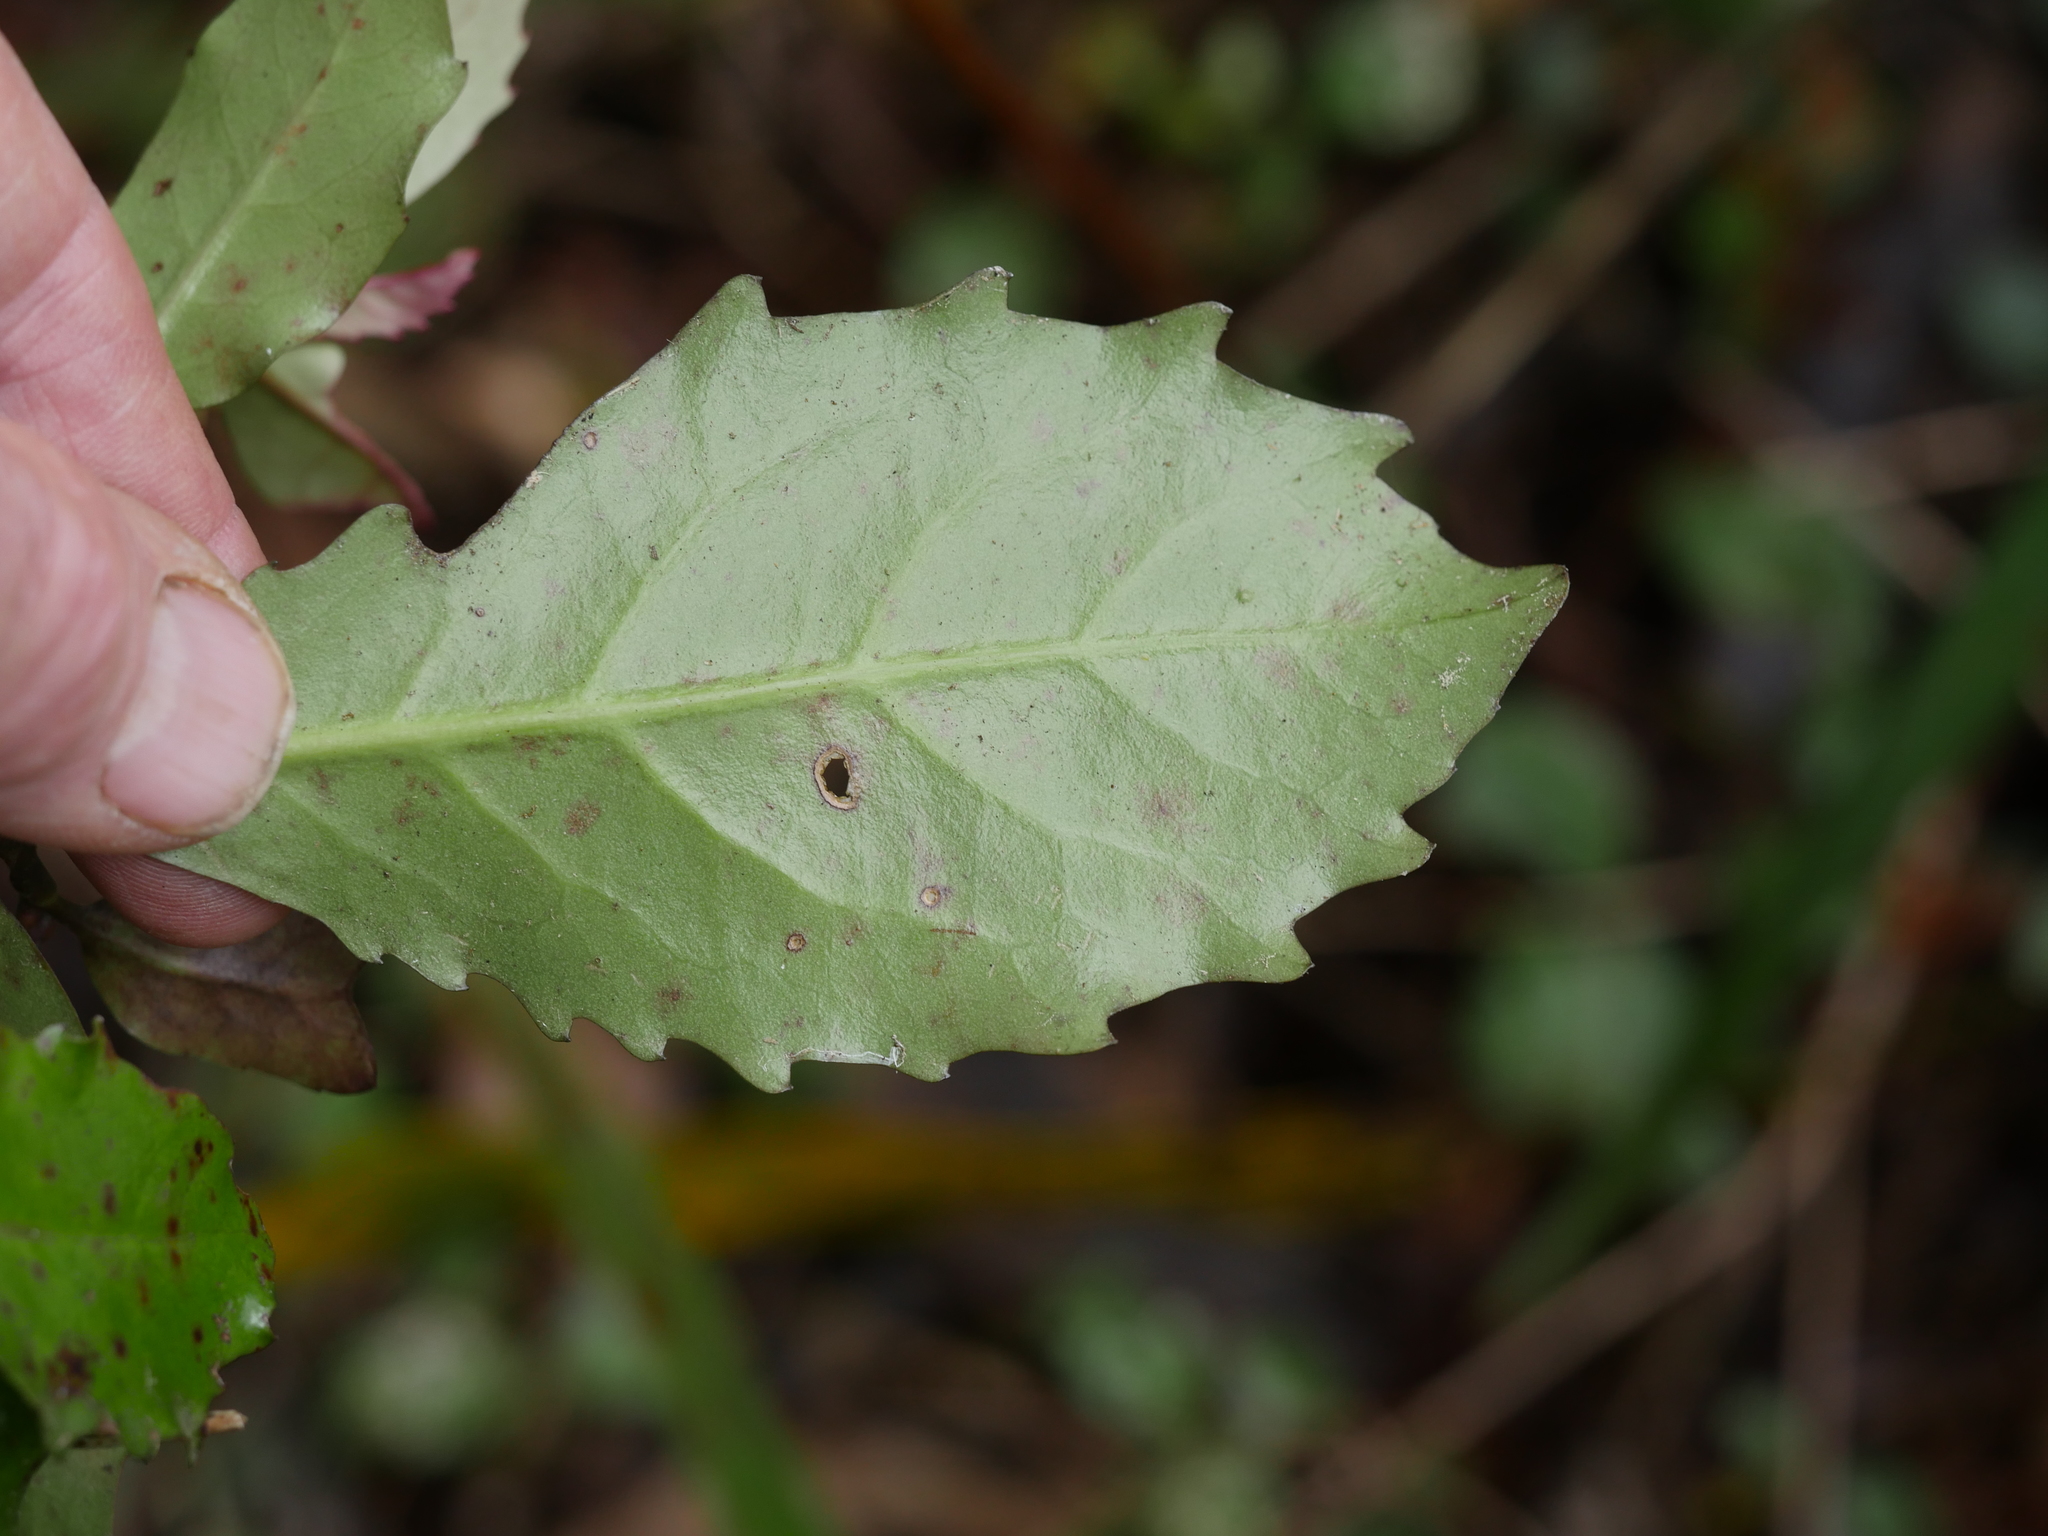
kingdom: Plantae
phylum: Tracheophyta
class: Magnoliopsida
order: Asterales
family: Alseuosmiaceae
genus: Alseuosmia
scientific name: Alseuosmia quercifolia
